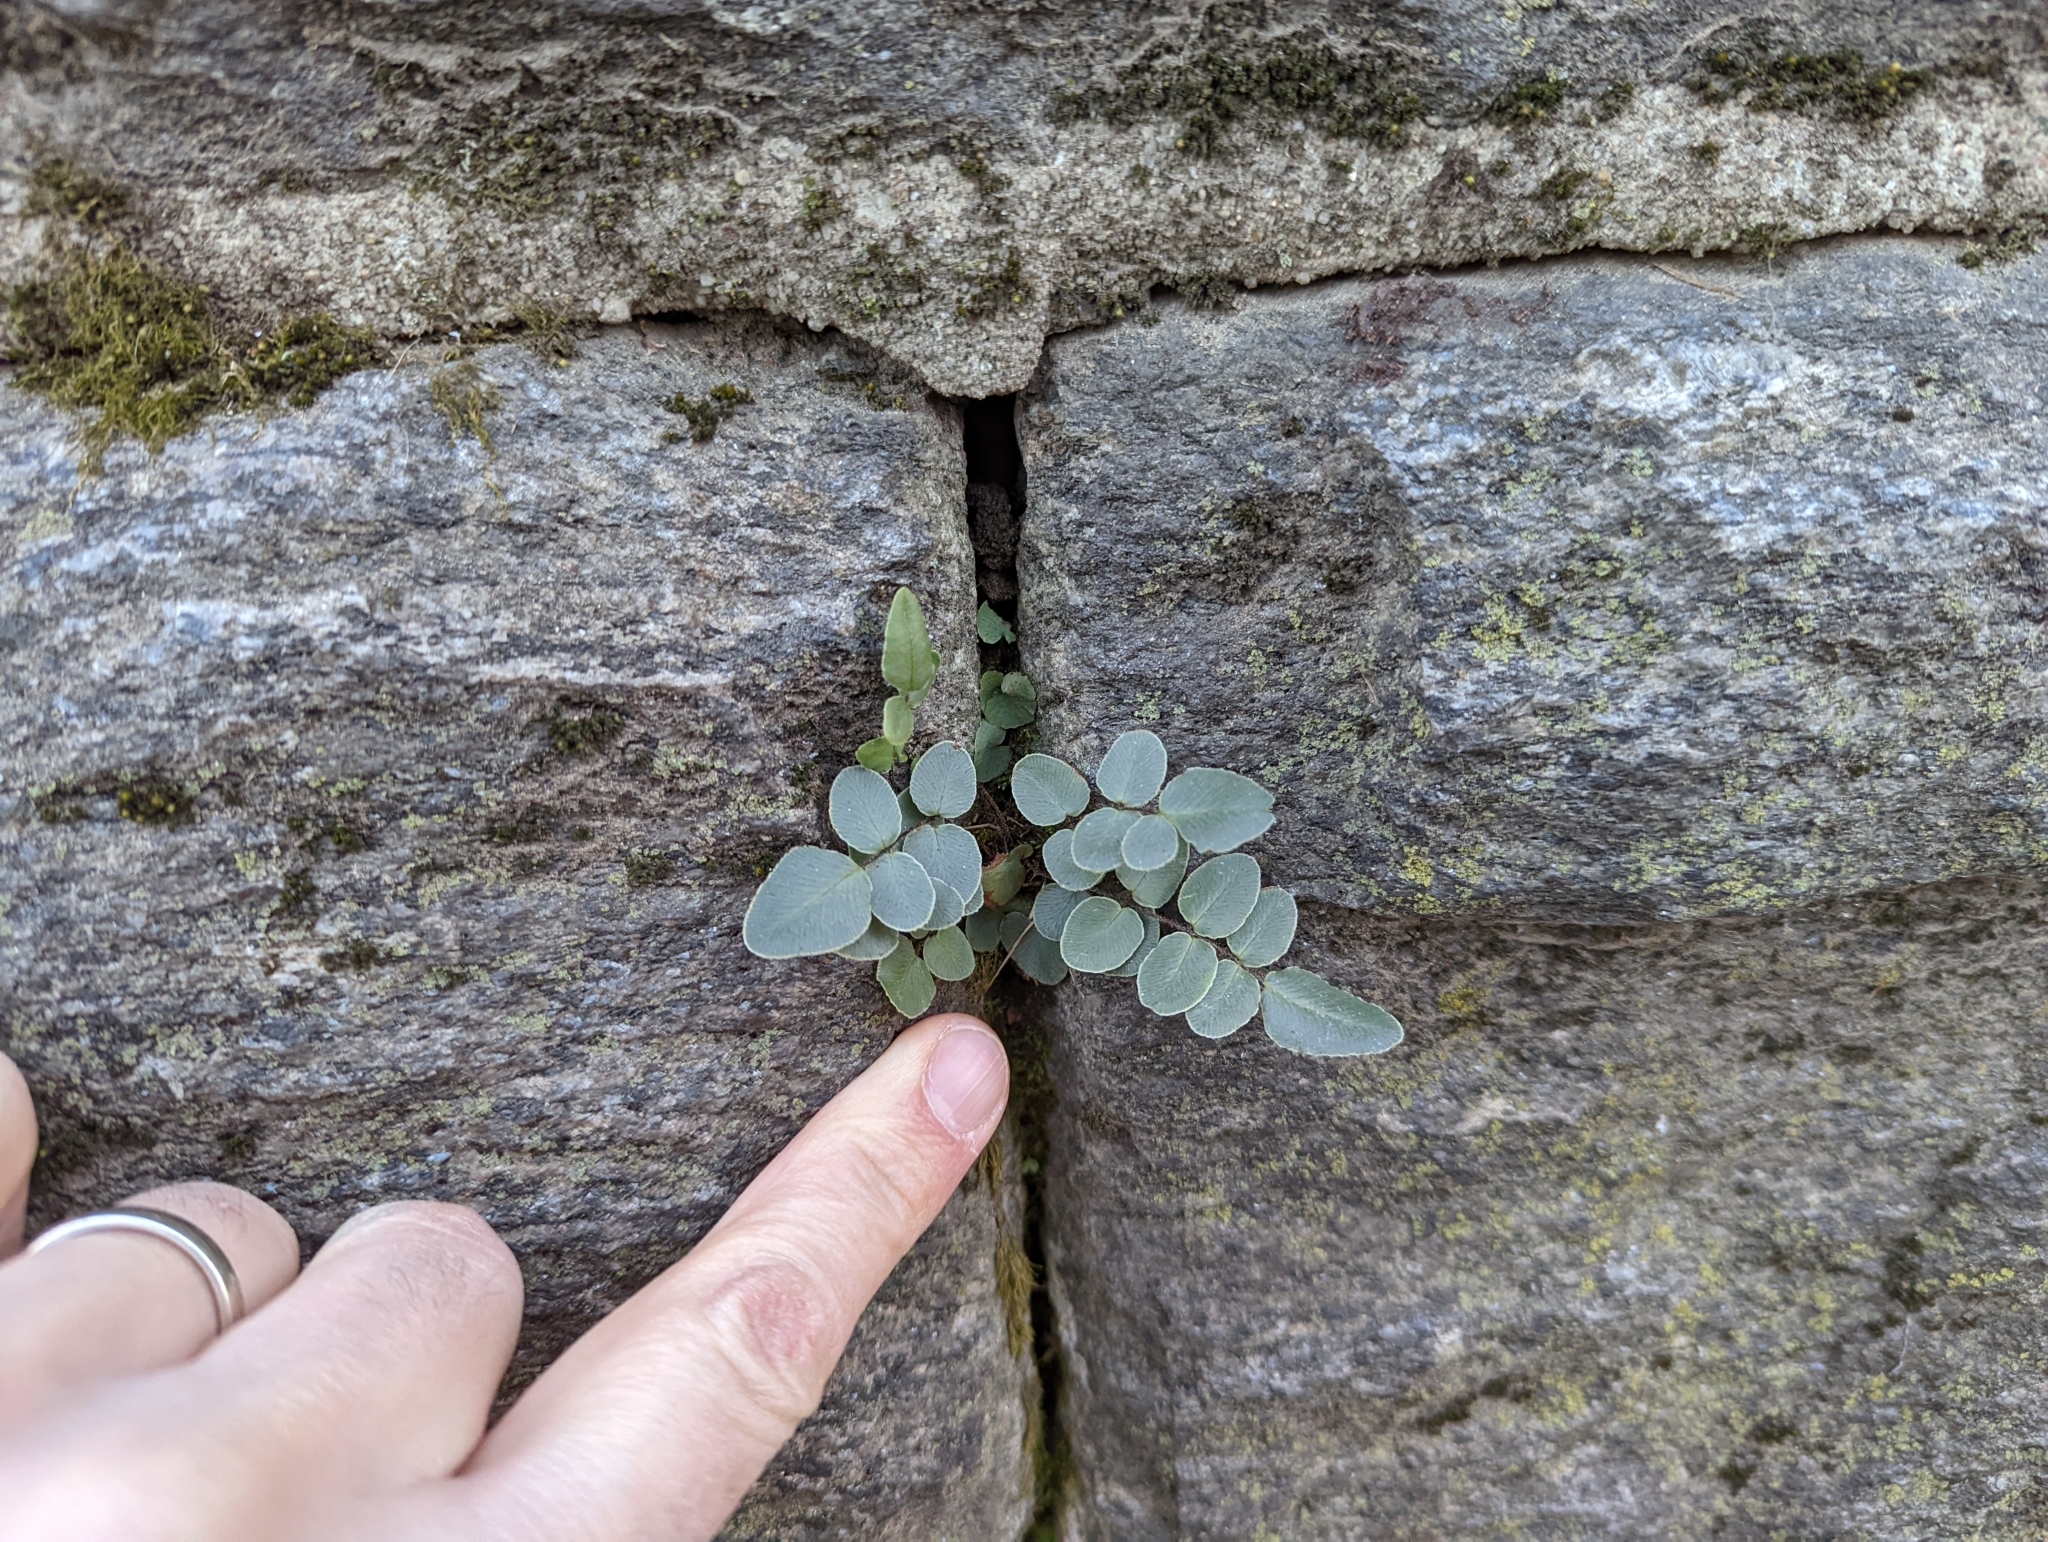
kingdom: Plantae
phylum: Tracheophyta
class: Polypodiopsida
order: Polypodiales
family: Pteridaceae
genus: Pellaea
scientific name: Pellaea atropurpurea
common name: Hairy cliffbrake
